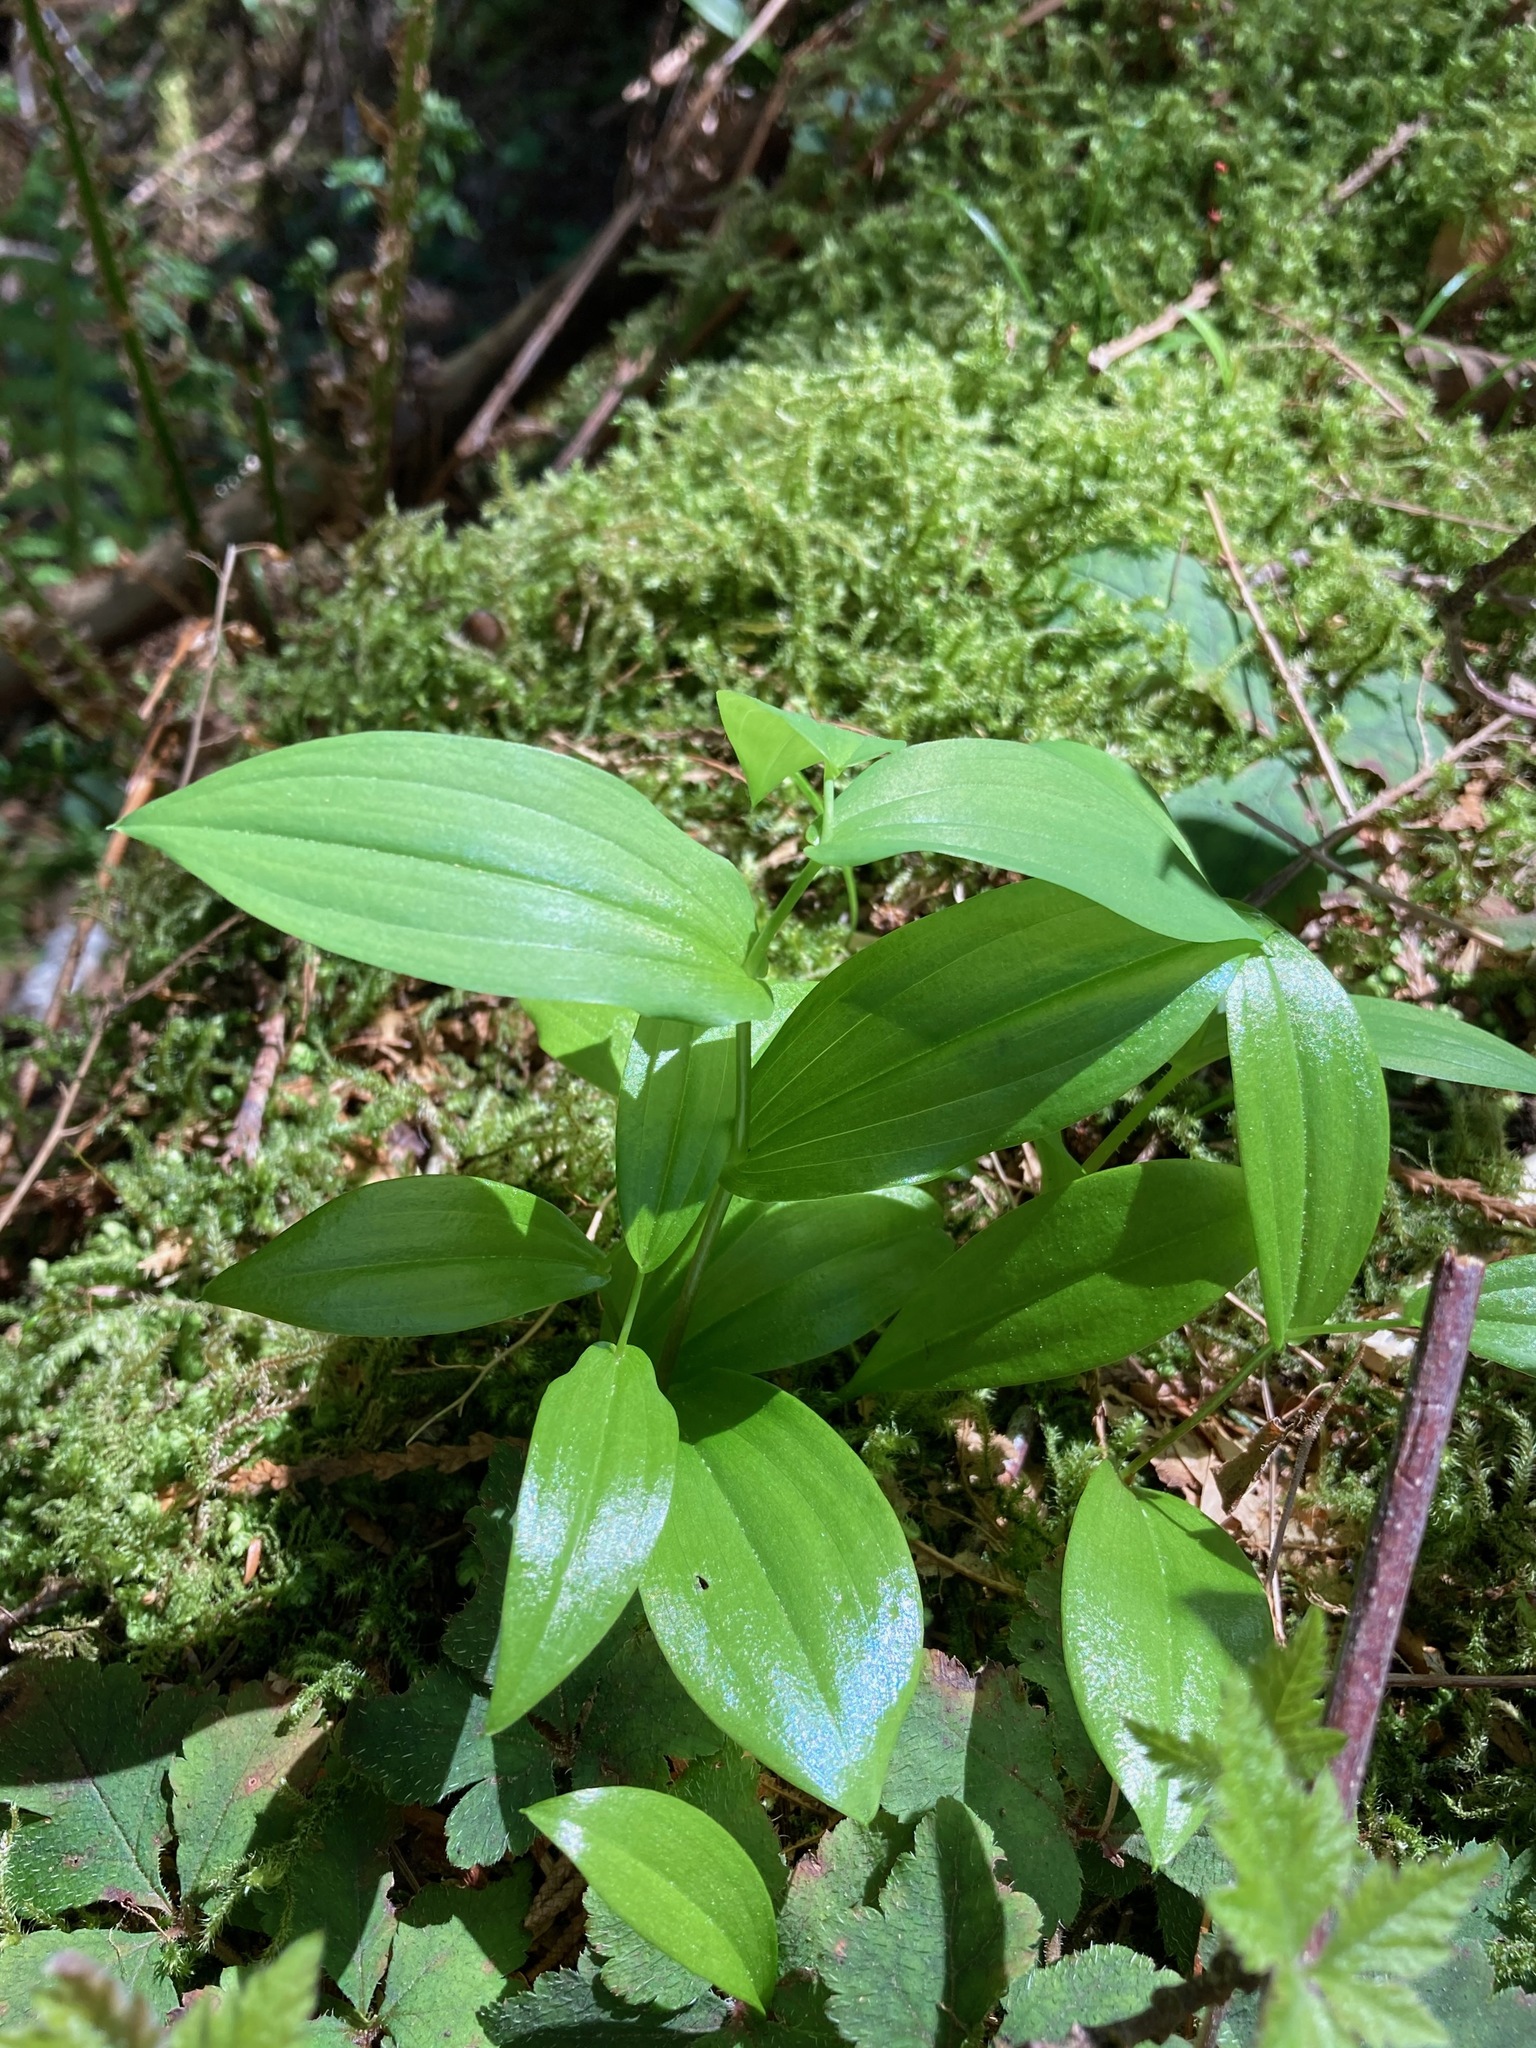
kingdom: Plantae
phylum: Tracheophyta
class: Liliopsida
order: Liliales
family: Liliaceae
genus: Streptopus
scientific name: Streptopus amplexifolius
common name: Clasp twisted stalk
